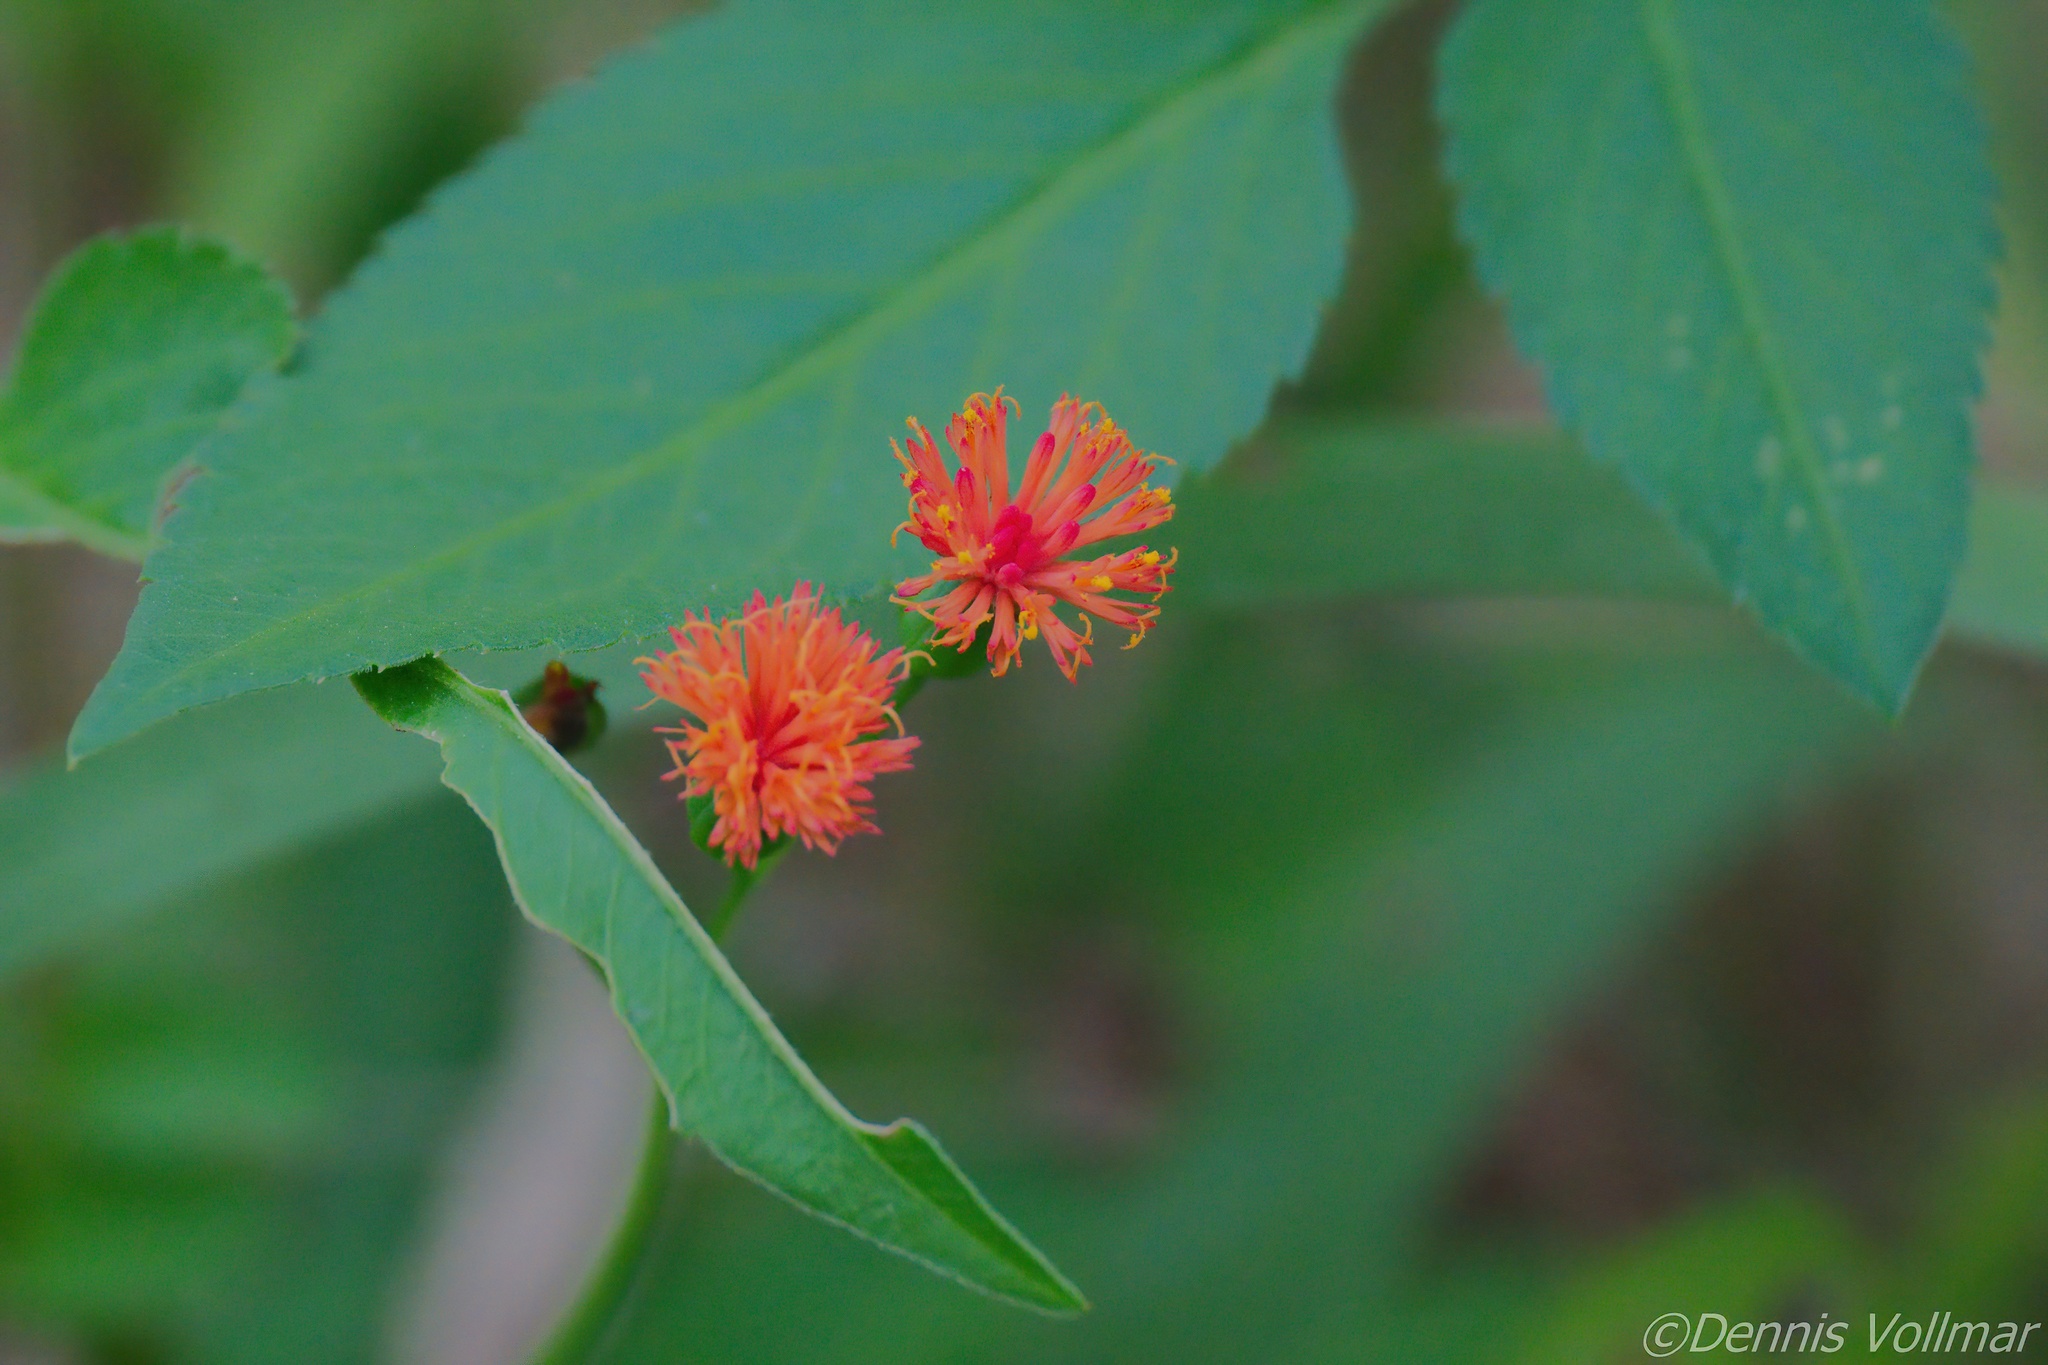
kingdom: Plantae
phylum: Tracheophyta
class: Magnoliopsida
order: Asterales
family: Asteraceae
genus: Emilia
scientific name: Emilia fosbergii
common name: Florida tasselflower
